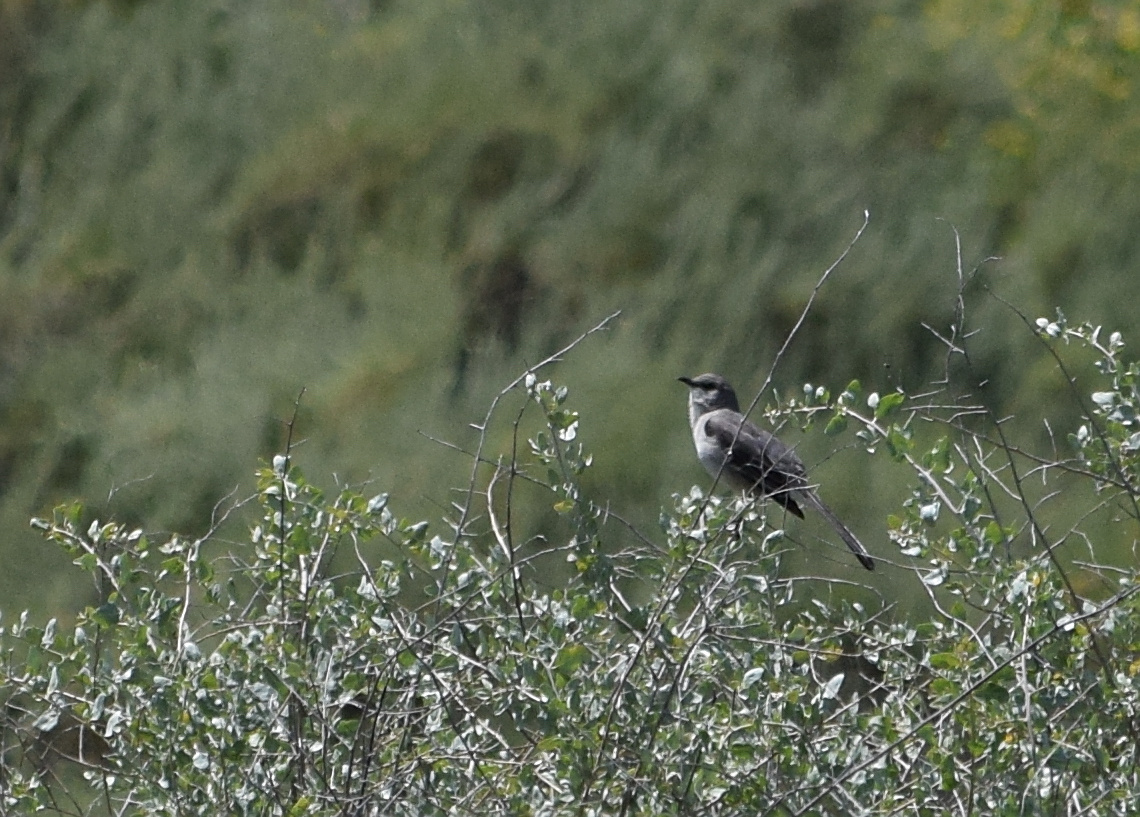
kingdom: Animalia
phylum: Chordata
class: Aves
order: Passeriformes
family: Mimidae
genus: Mimus
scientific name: Mimus polyglottos
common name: Northern mockingbird
